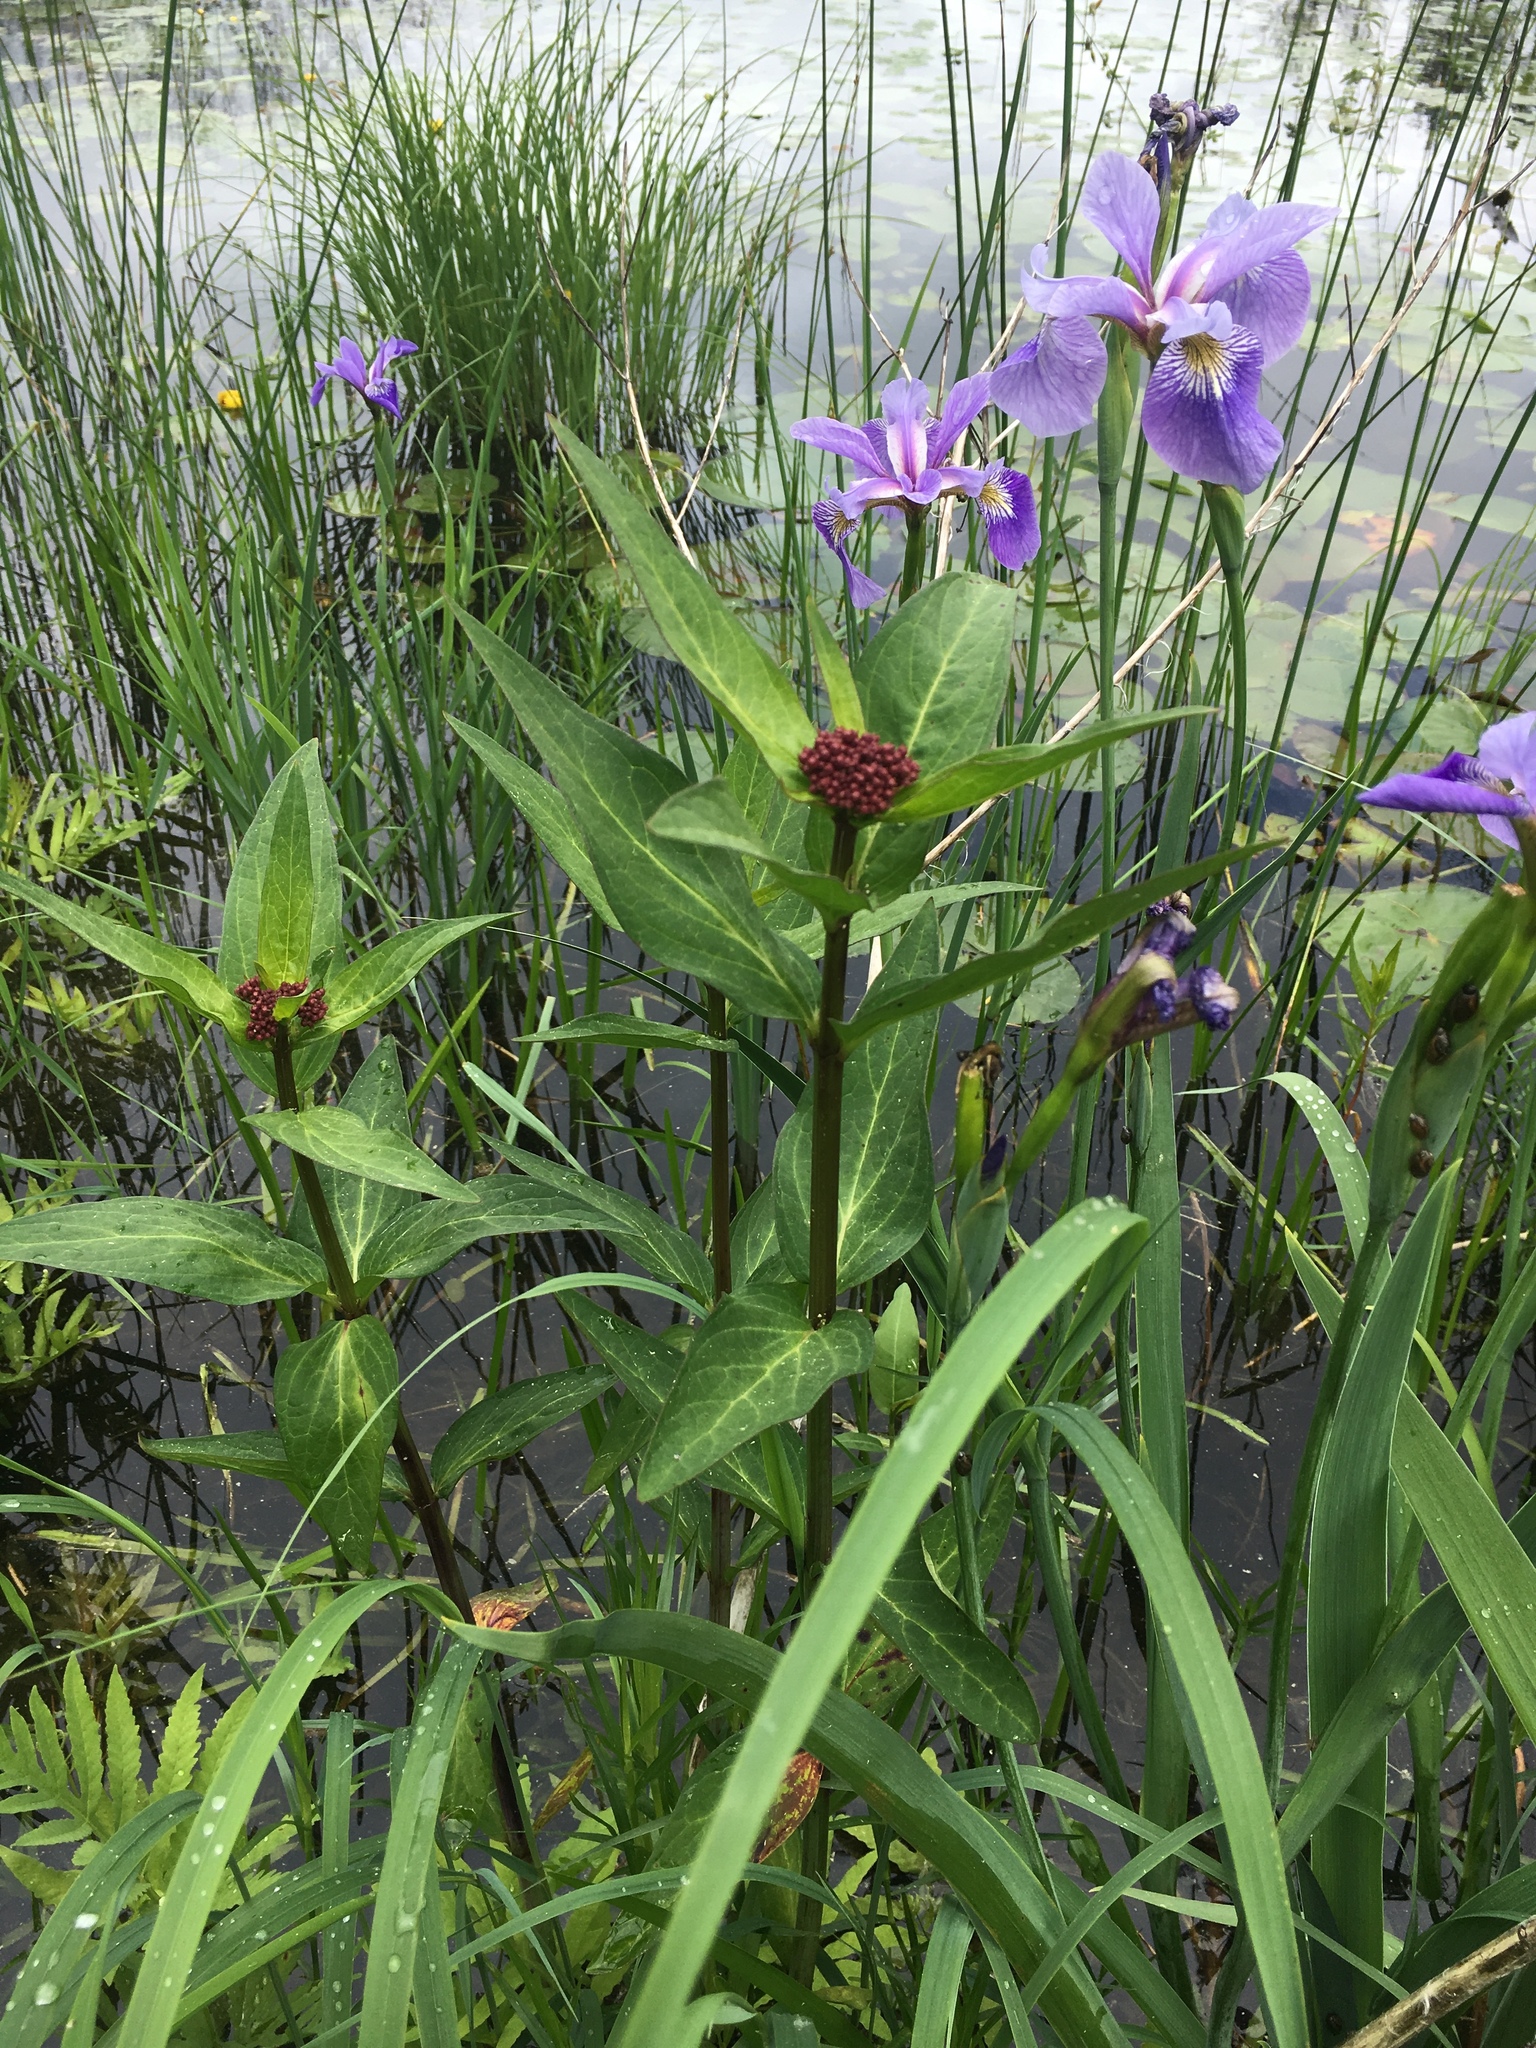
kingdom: Plantae
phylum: Tracheophyta
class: Magnoliopsida
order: Gentianales
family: Apocynaceae
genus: Asclepias
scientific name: Asclepias incarnata
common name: Swamp milkweed
